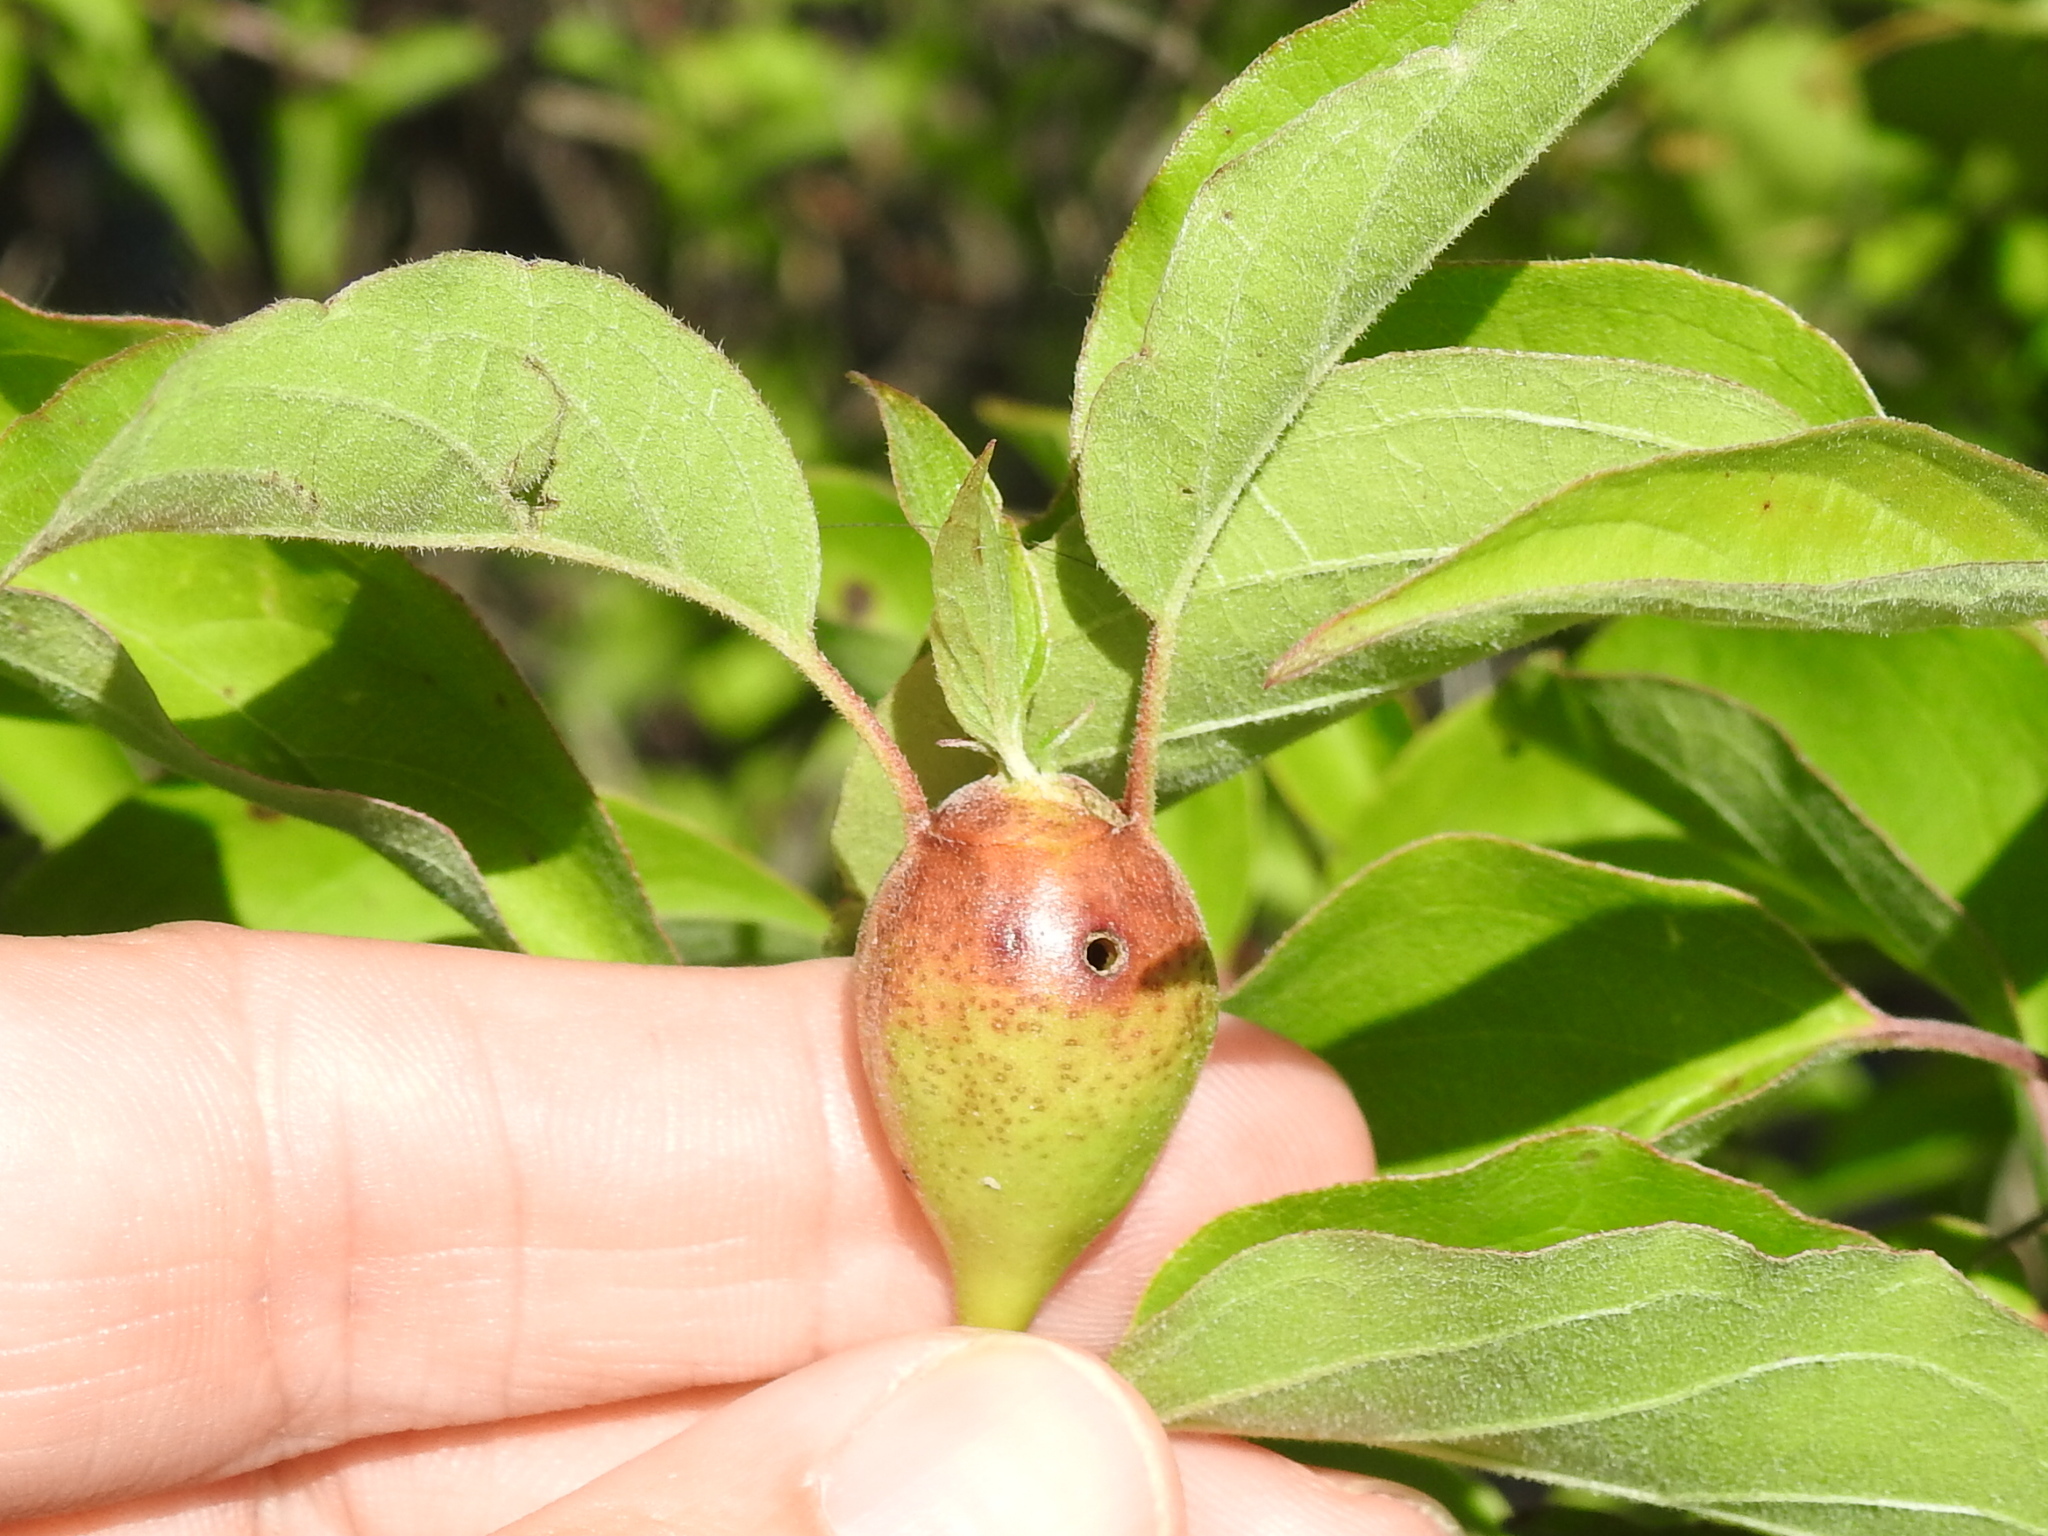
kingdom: Animalia
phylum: Arthropoda
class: Insecta
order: Diptera
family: Cecidomyiidae
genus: Resseliella
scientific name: Resseliella clavula
